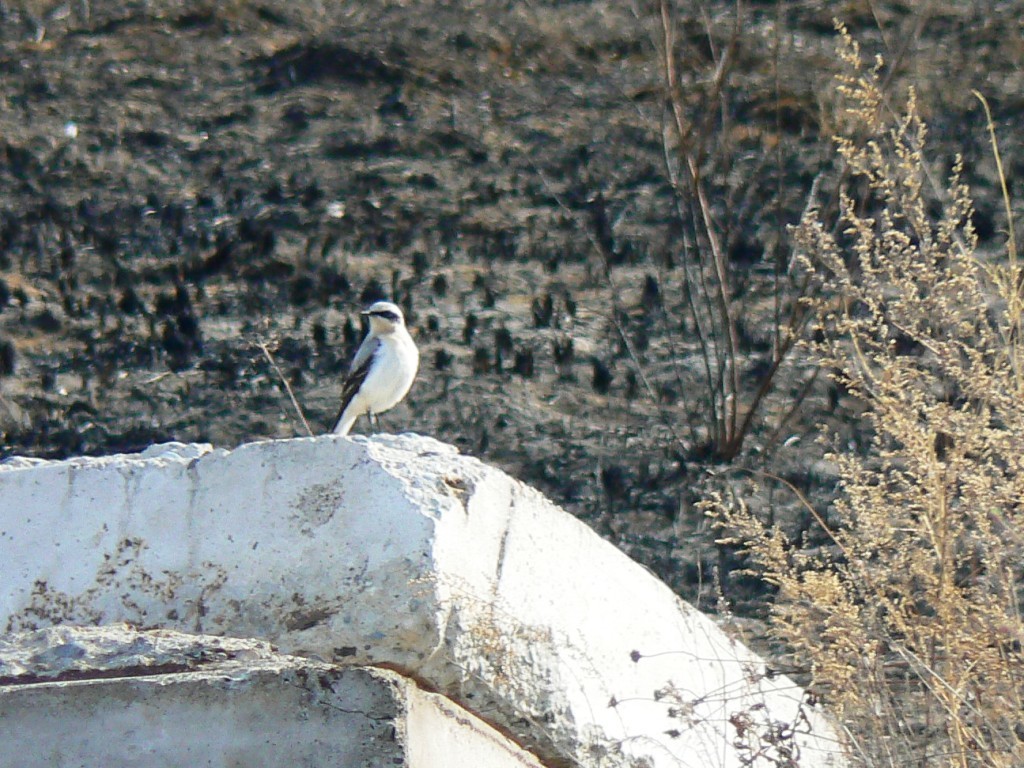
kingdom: Animalia
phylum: Chordata
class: Aves
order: Passeriformes
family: Muscicapidae
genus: Oenanthe
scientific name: Oenanthe oenanthe
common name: Northern wheatear
